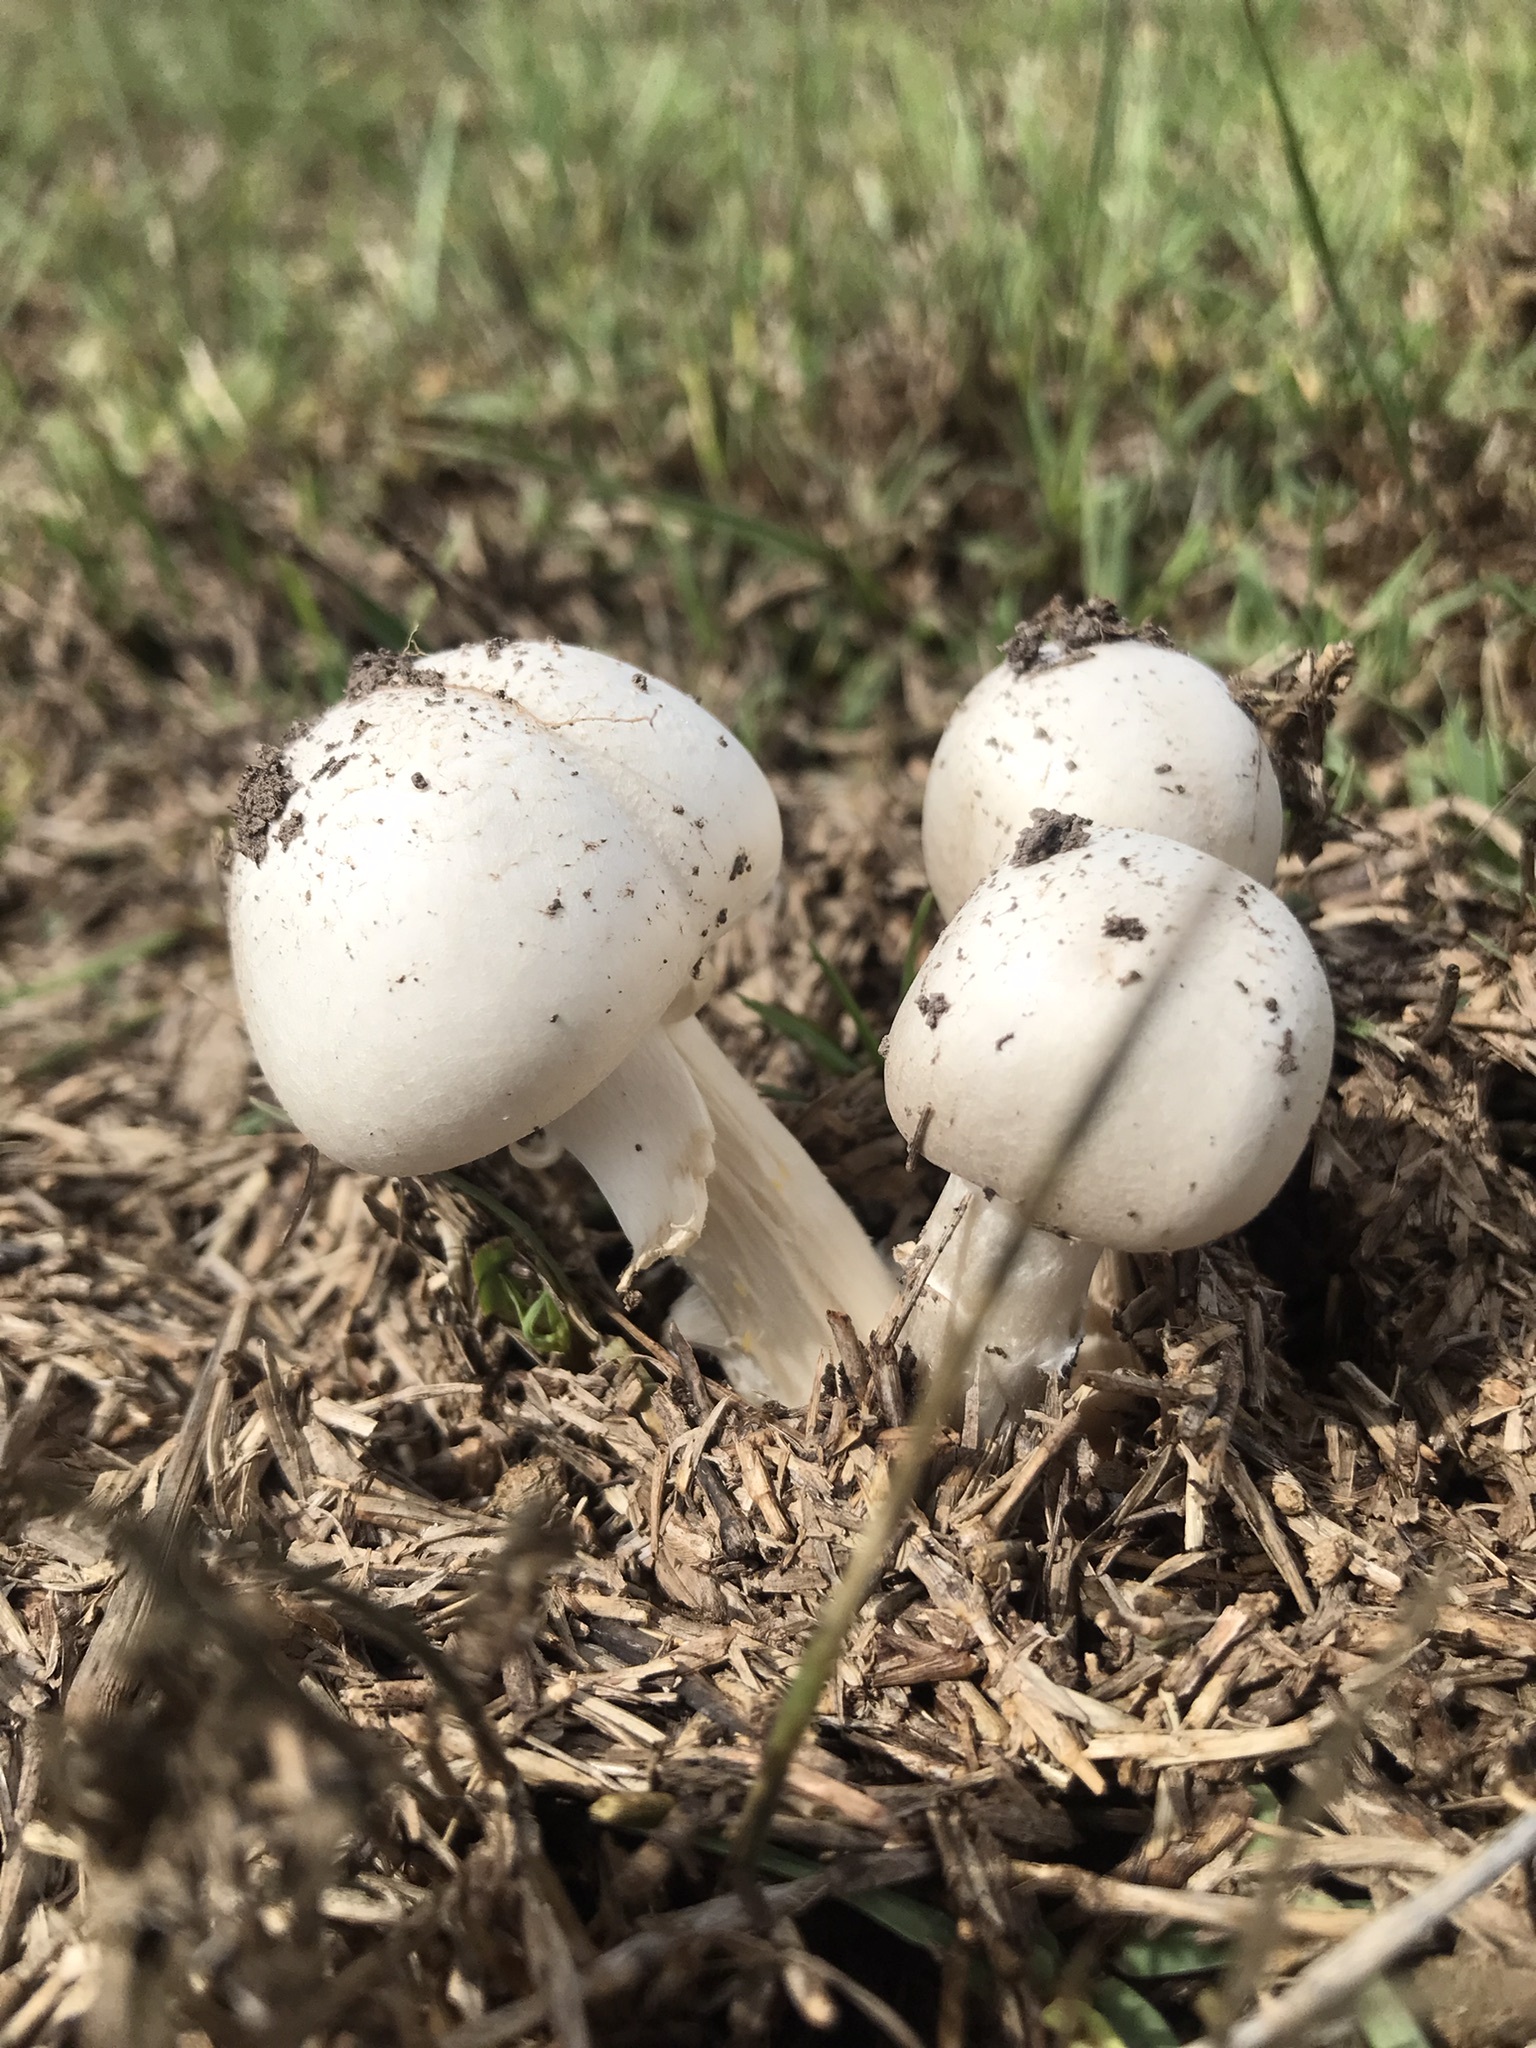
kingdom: Fungi
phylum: Basidiomycota
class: Agaricomycetes
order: Agaricales
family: Agaricaceae
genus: Agaricus
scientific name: Agaricus campestris
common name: Field mushroom
